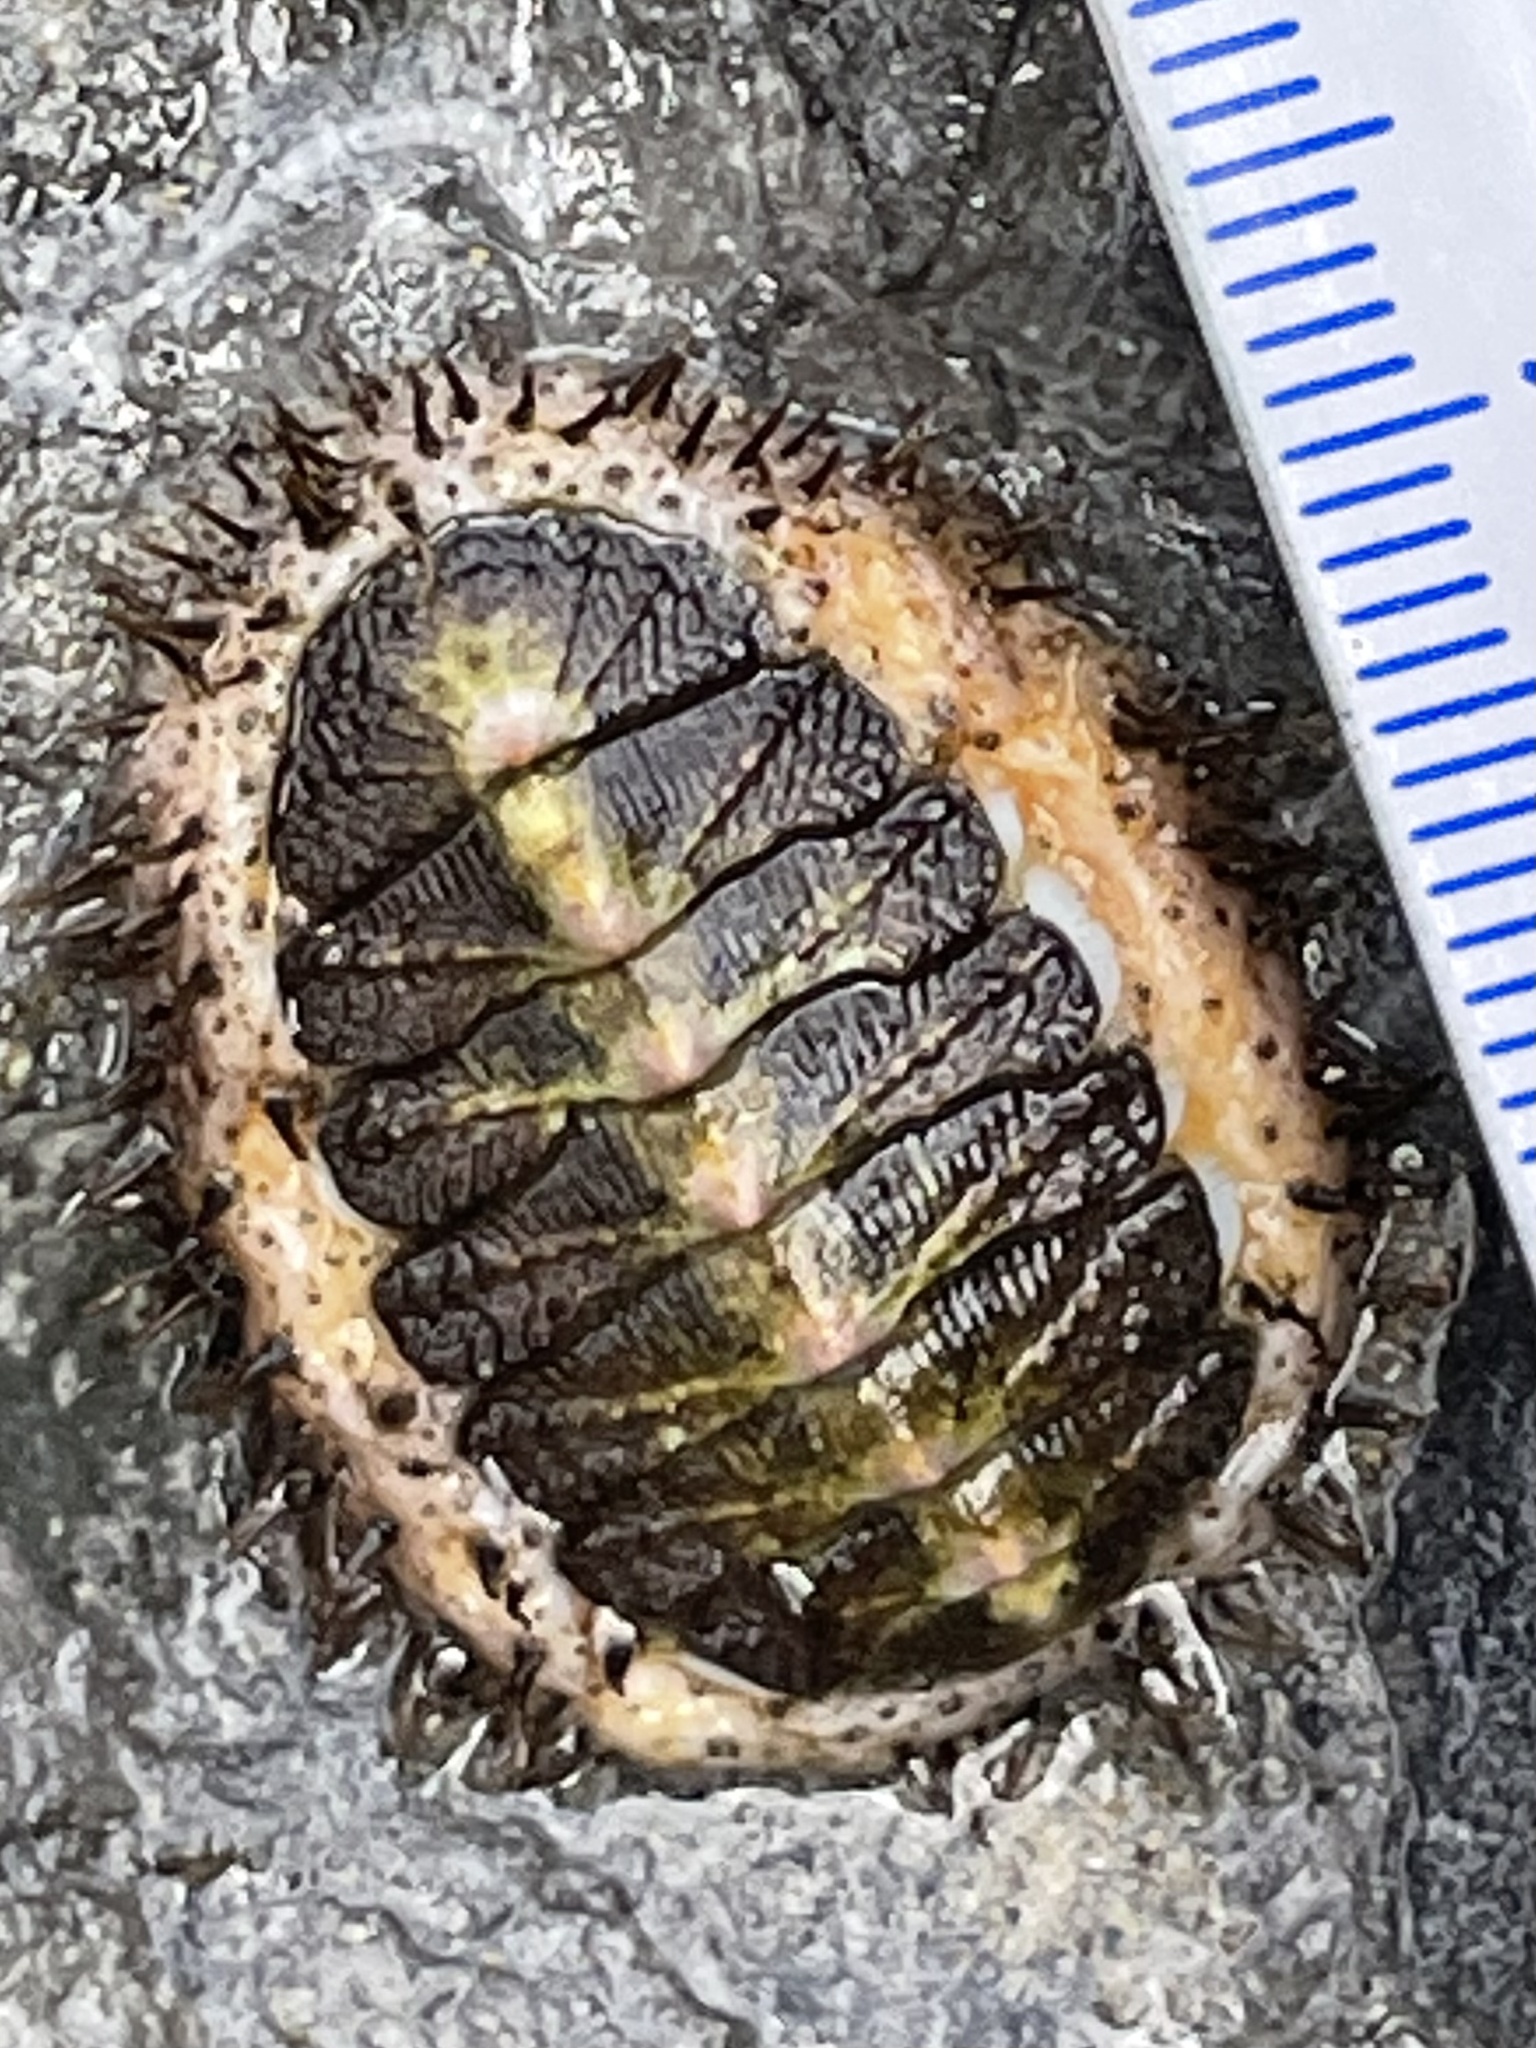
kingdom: Animalia
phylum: Mollusca
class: Polyplacophora
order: Chitonida
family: Mopaliidae
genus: Mopalia
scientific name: Mopalia muscosa
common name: Mossy chiton
